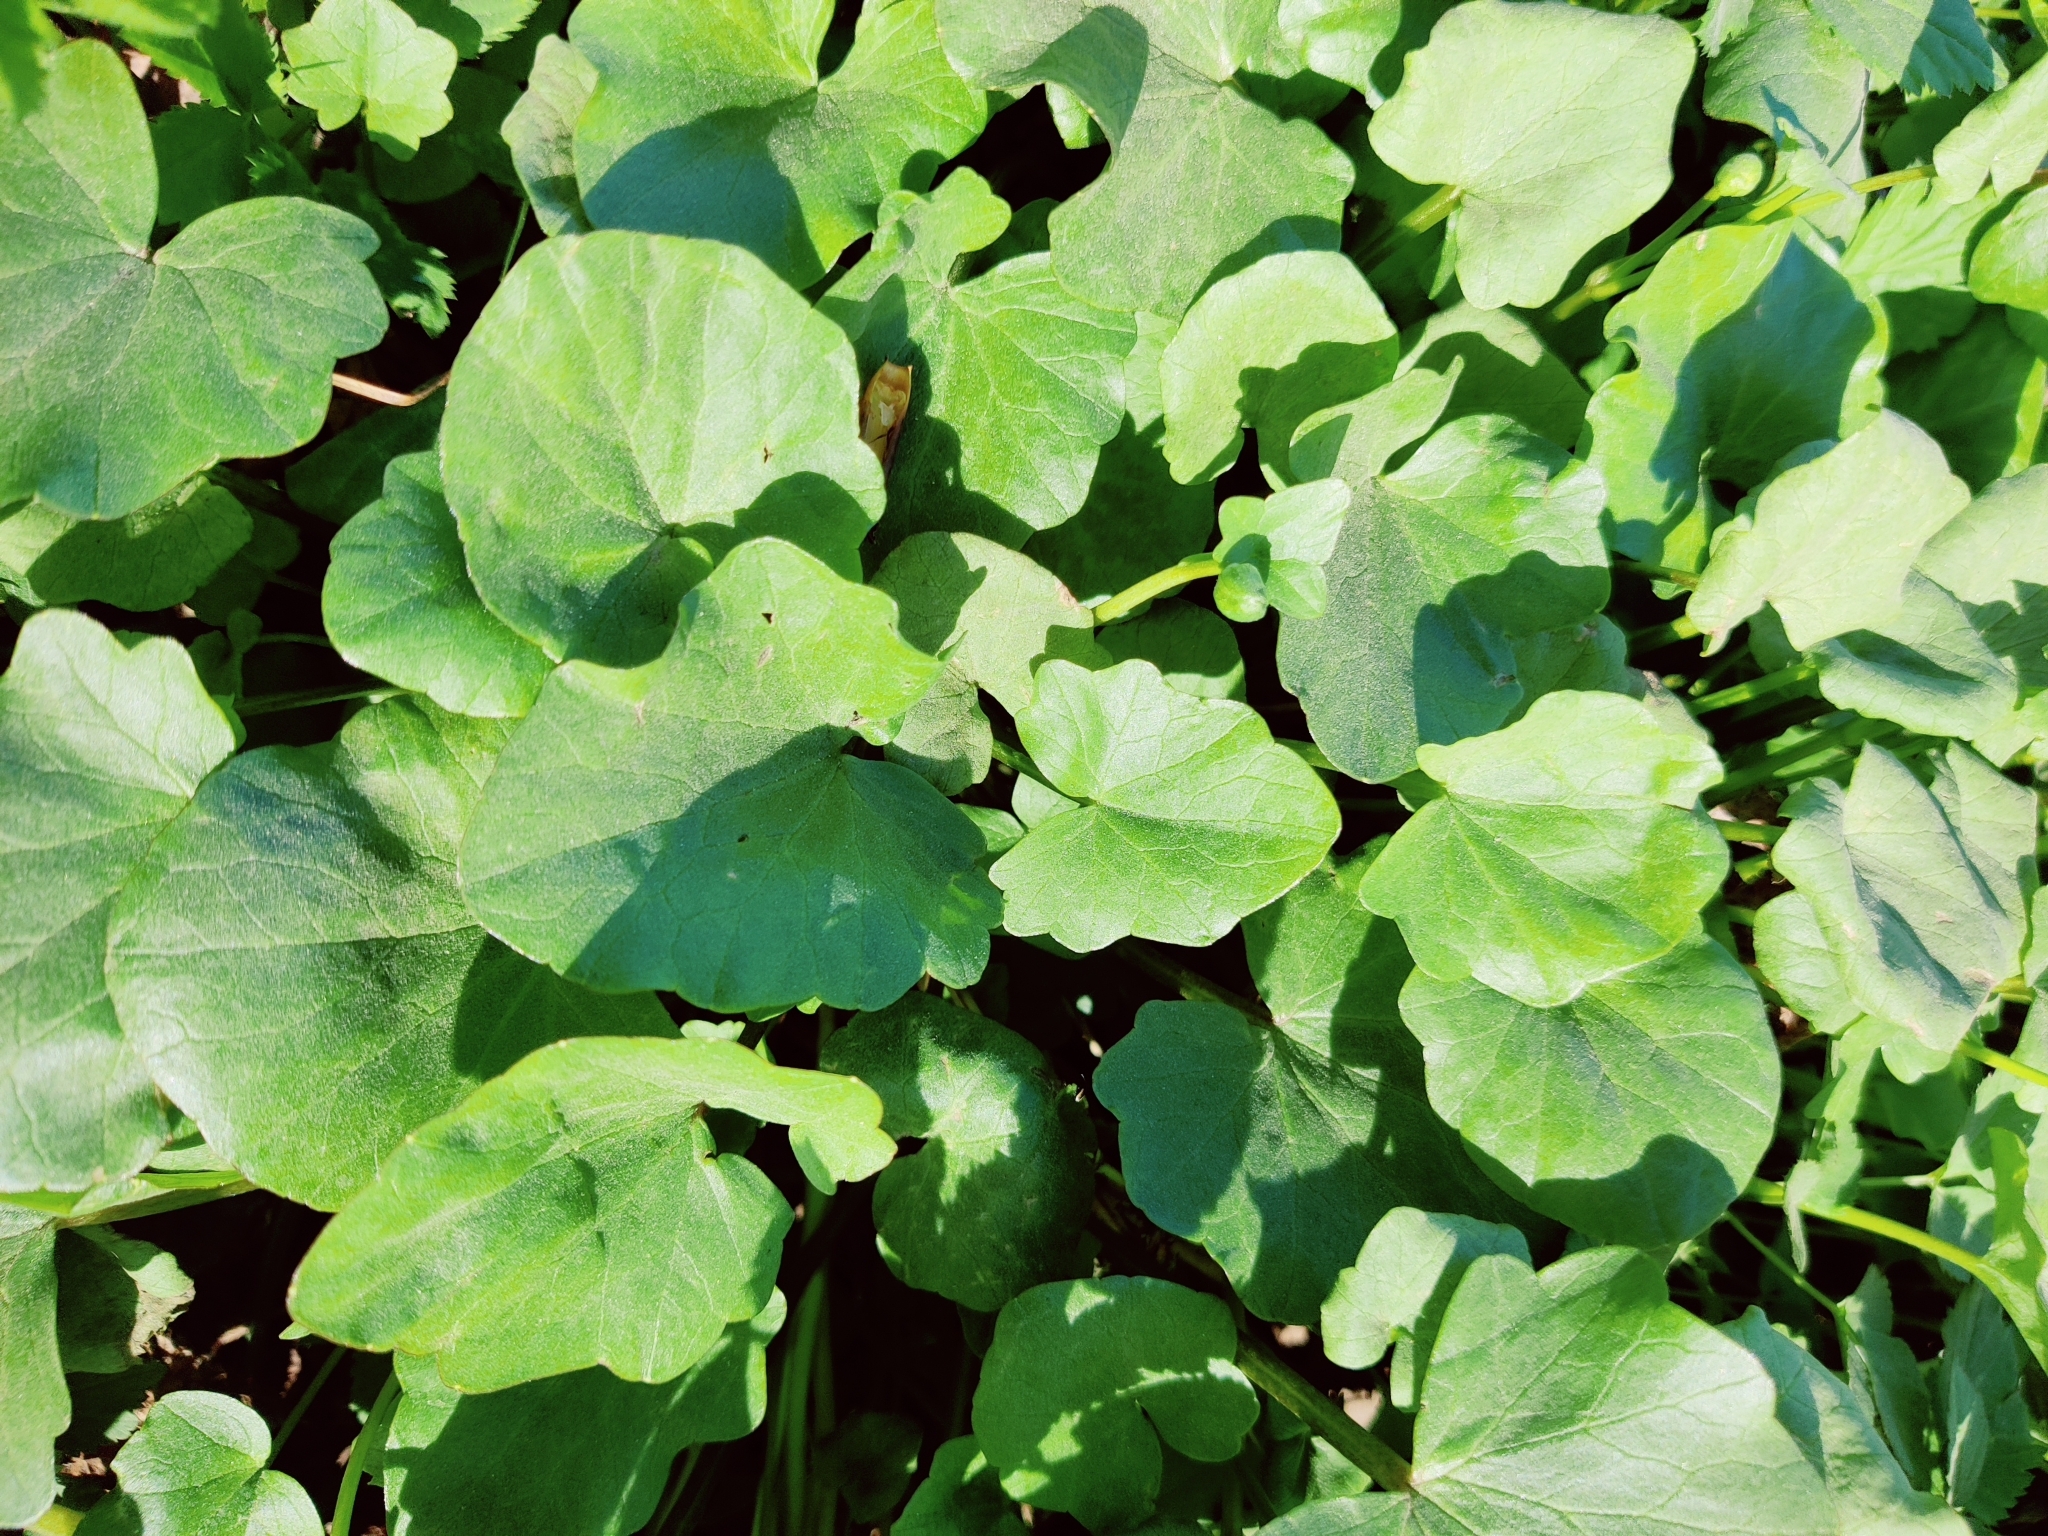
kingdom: Plantae
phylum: Tracheophyta
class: Magnoliopsida
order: Ranunculales
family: Ranunculaceae
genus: Ficaria
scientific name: Ficaria verna
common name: Lesser celandine
